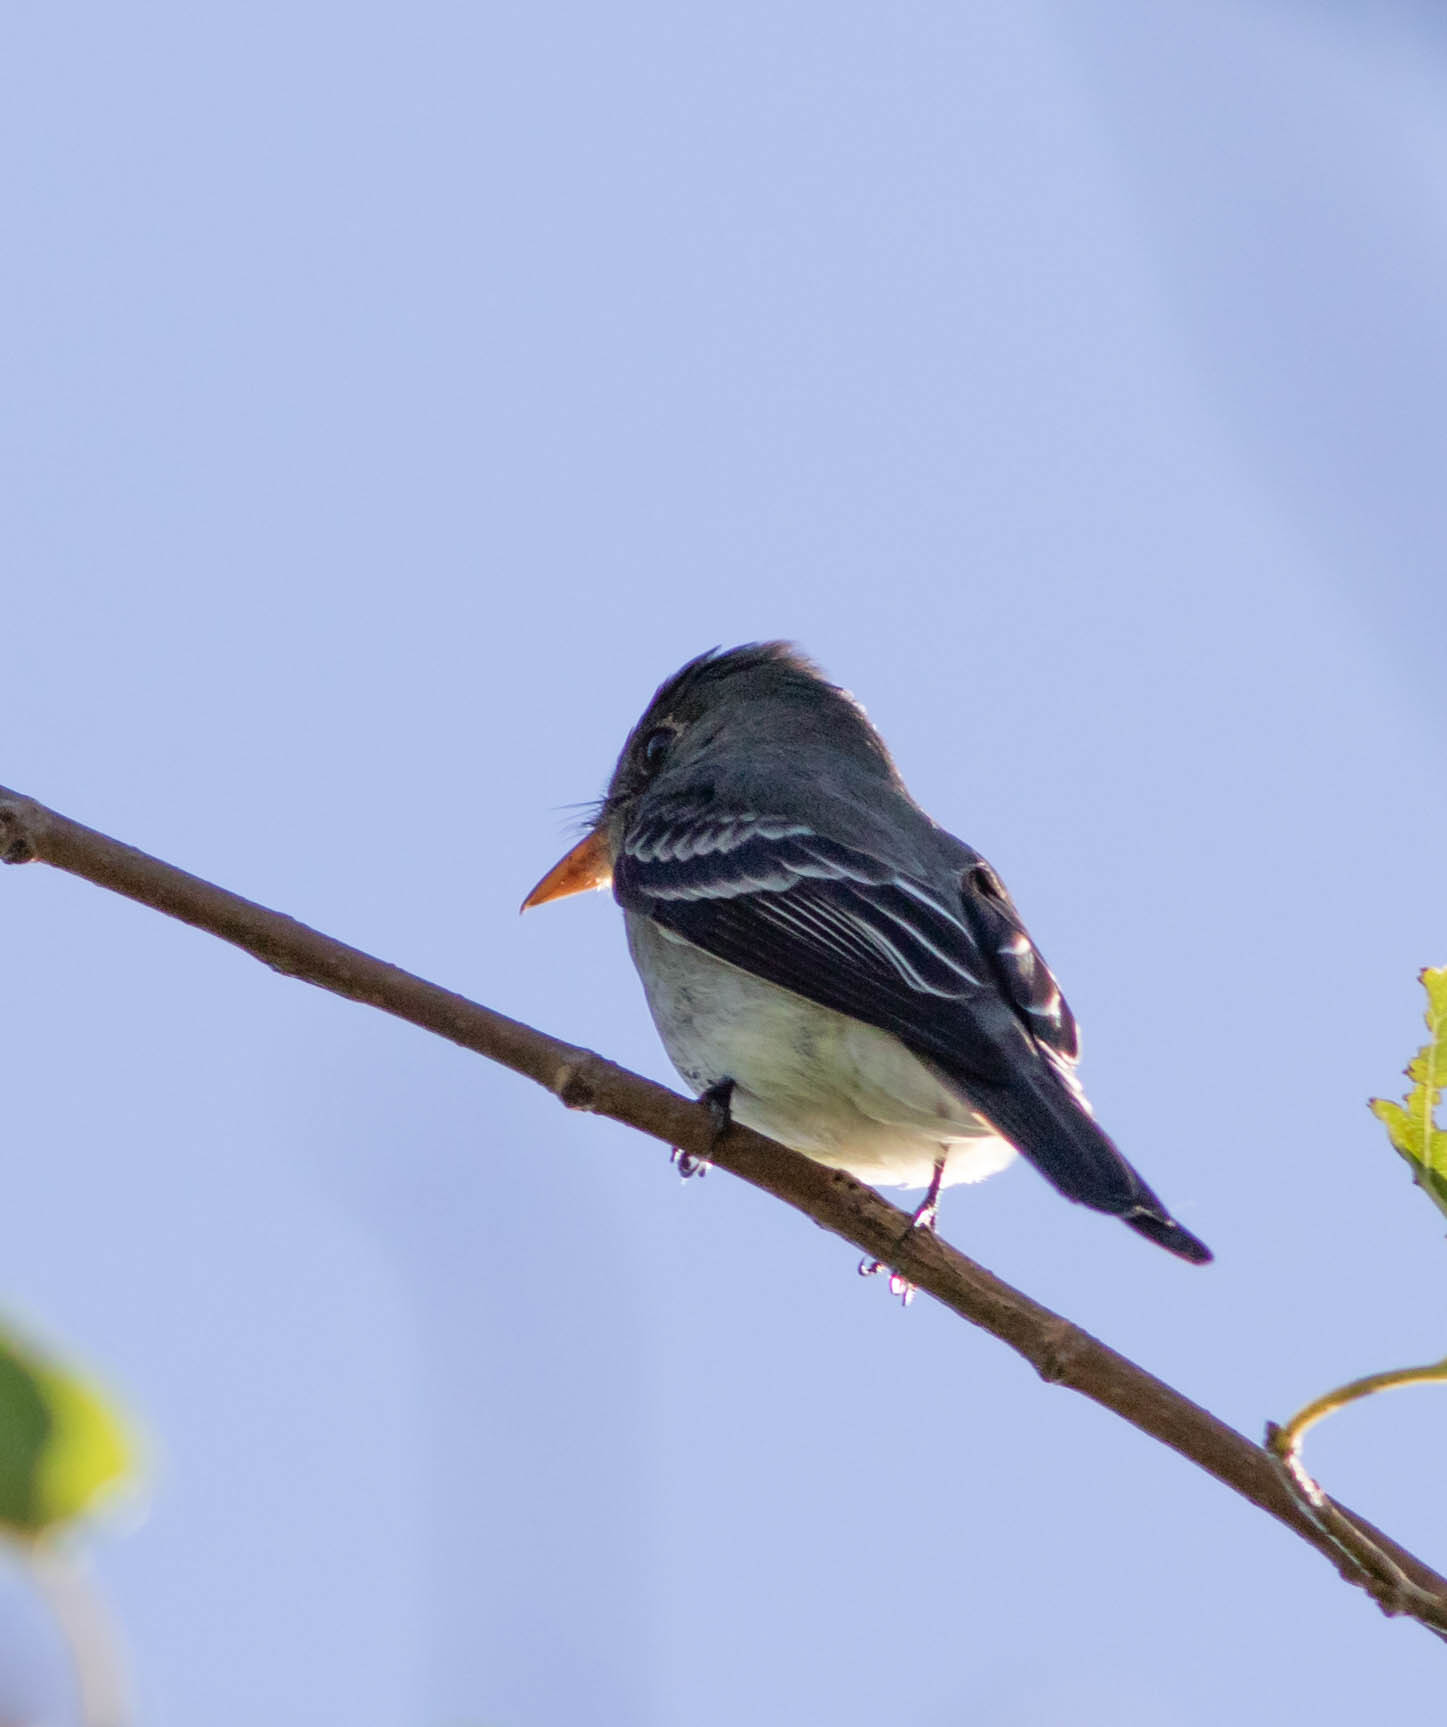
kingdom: Animalia
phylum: Chordata
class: Aves
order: Passeriformes
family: Tyrannidae
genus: Contopus
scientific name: Contopus virens
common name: Eastern wood-pewee
